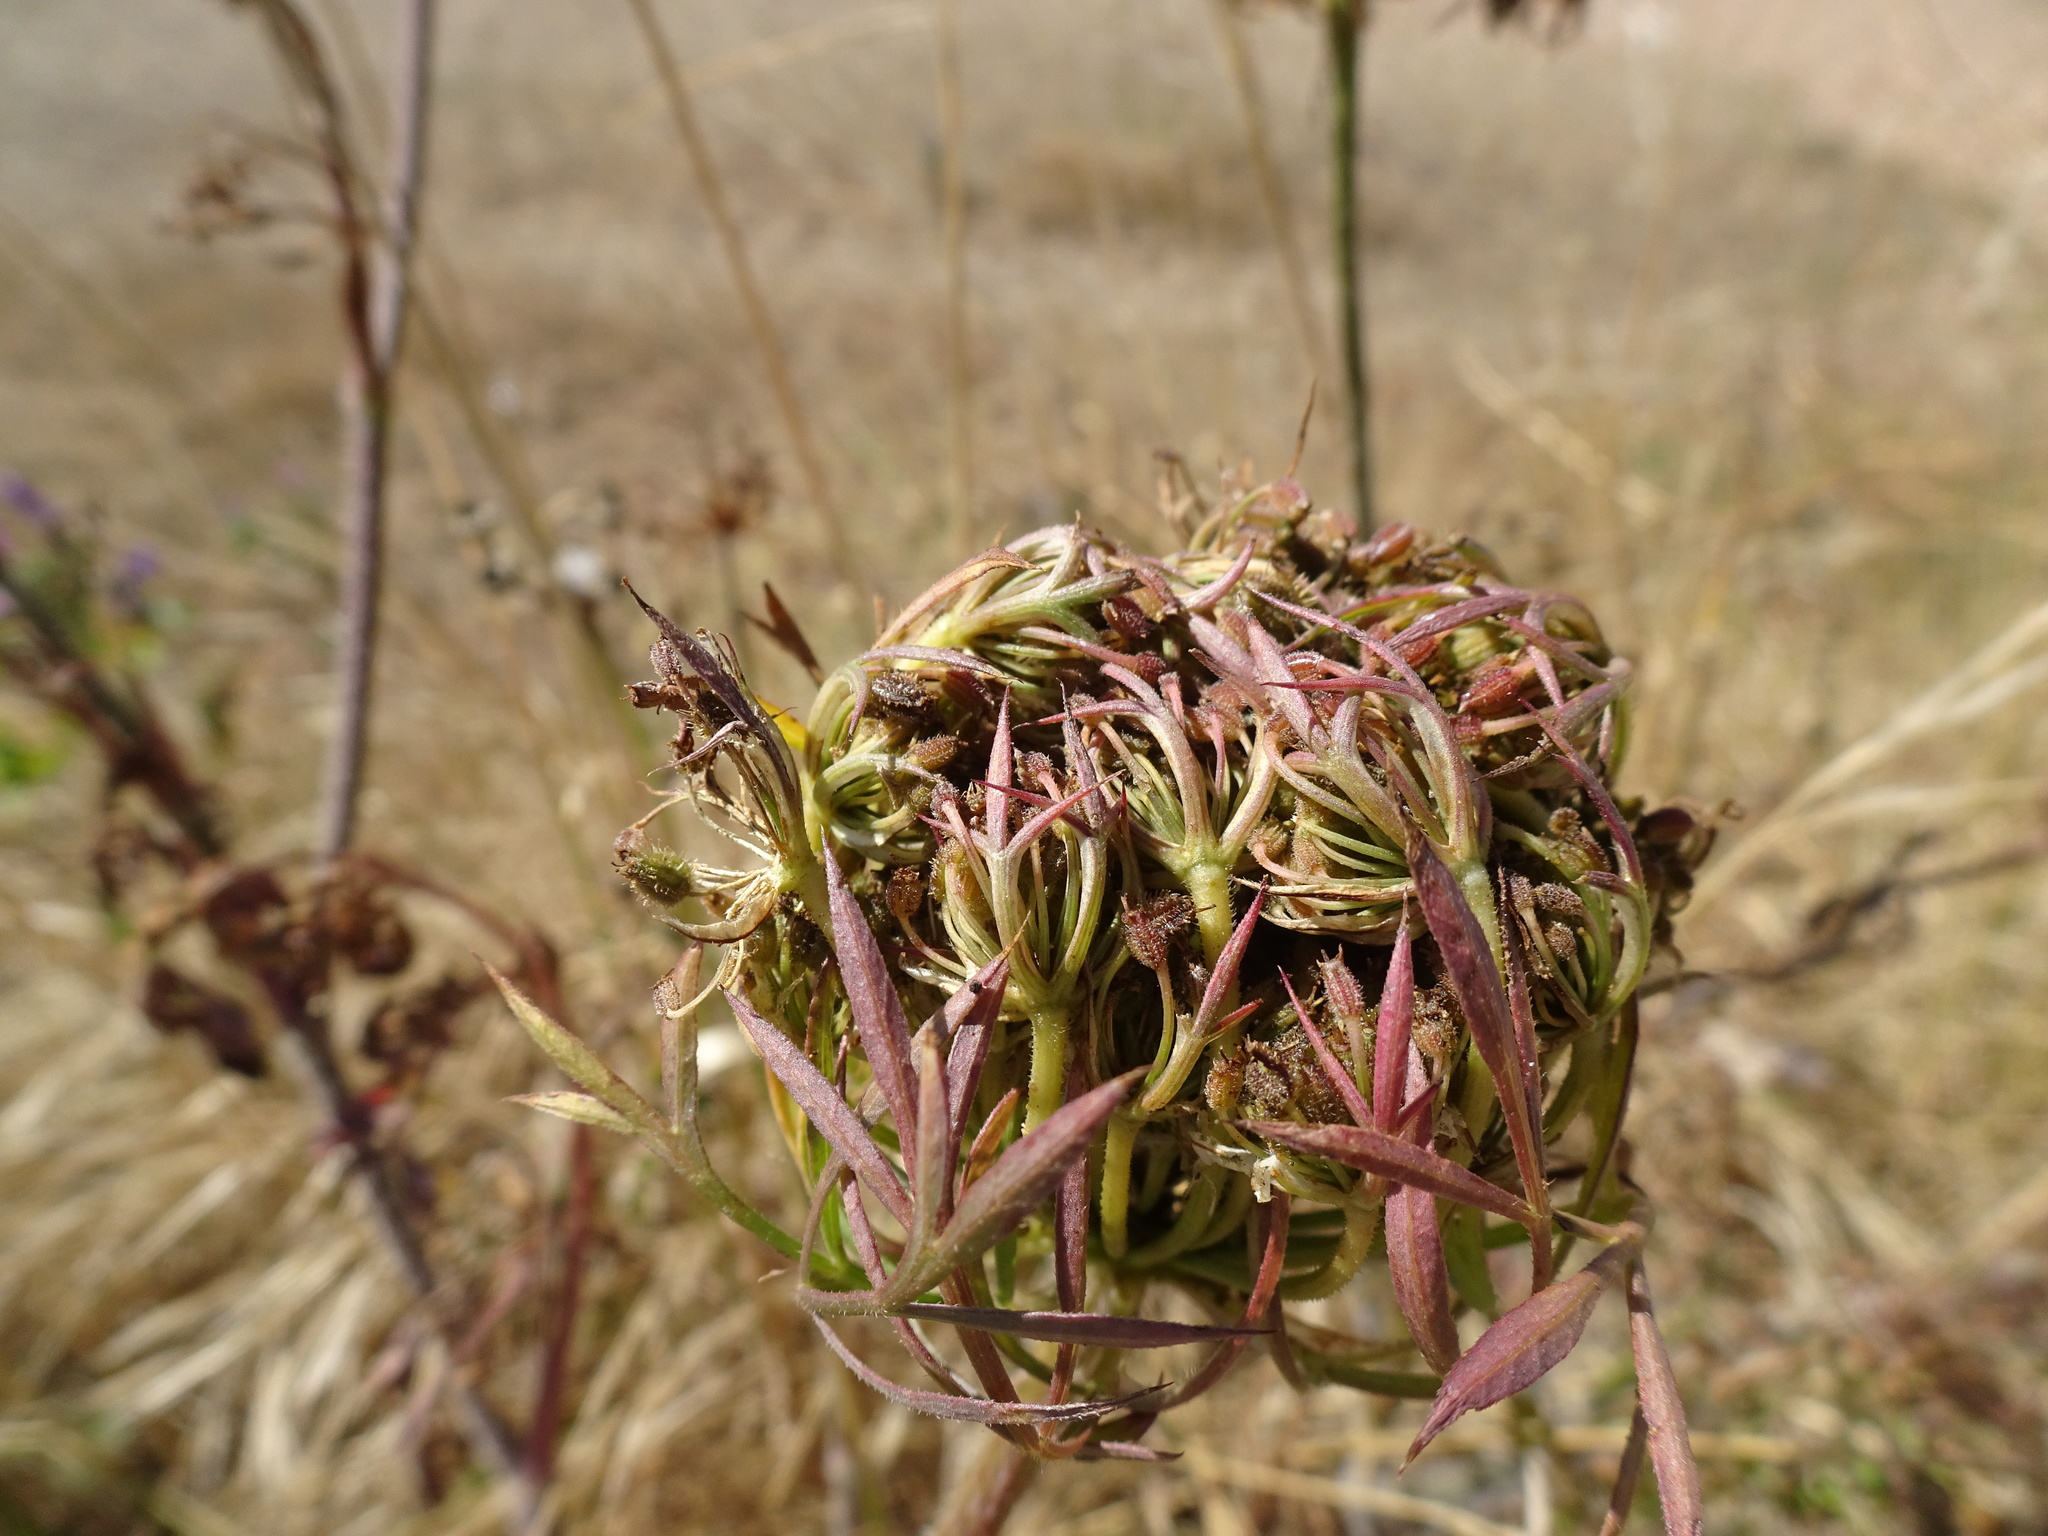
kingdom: Plantae
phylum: Tracheophyta
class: Magnoliopsida
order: Apiales
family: Apiaceae
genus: Daucus
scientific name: Daucus carota
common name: Wild carrot
